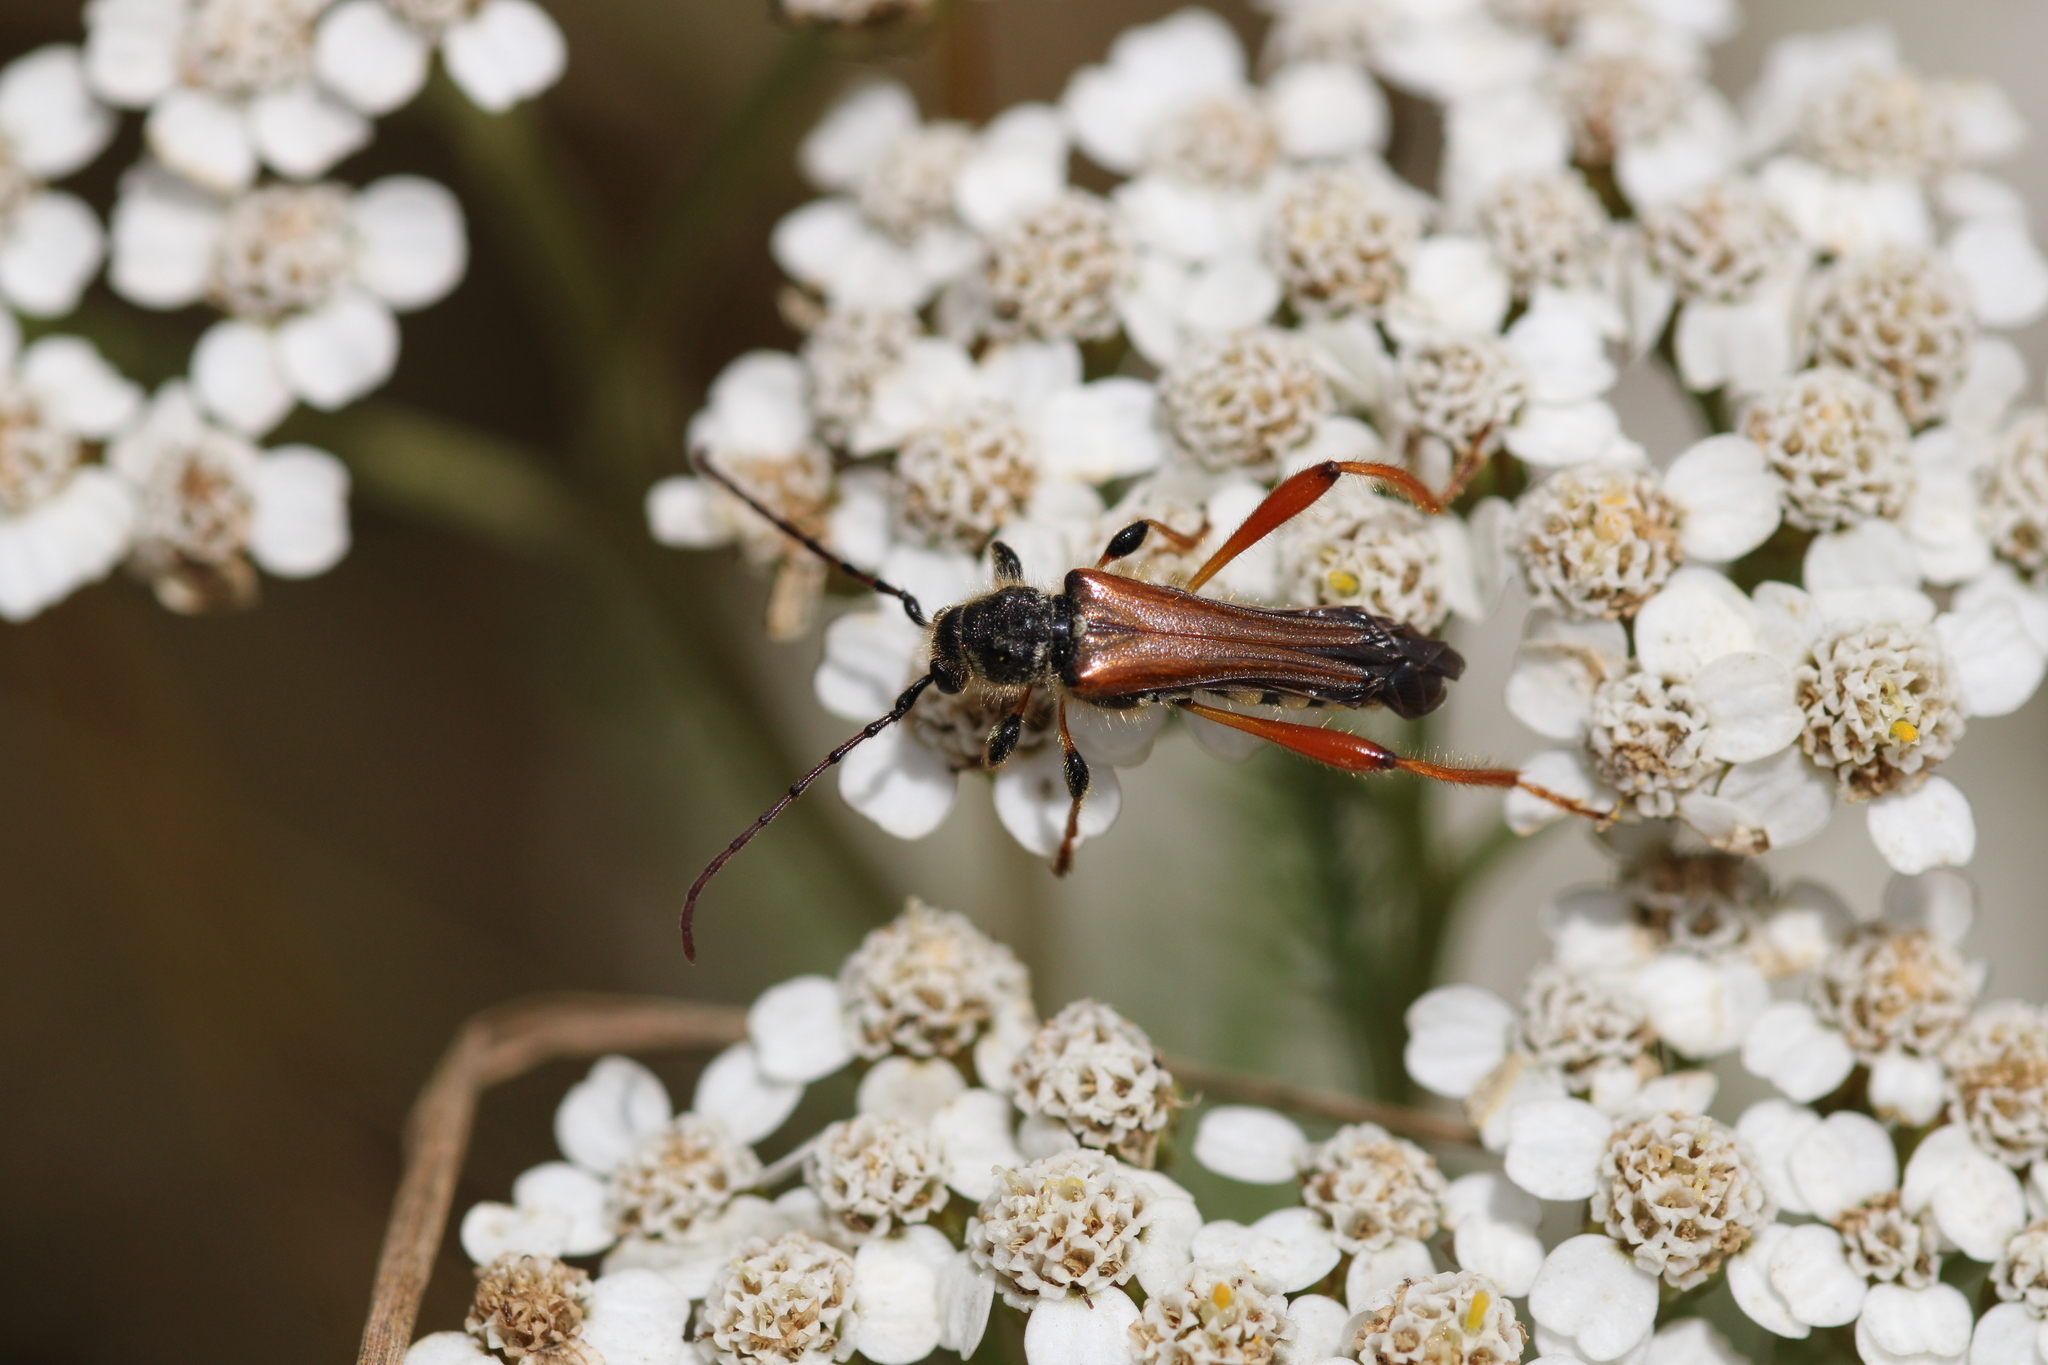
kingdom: Animalia
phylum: Arthropoda
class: Insecta
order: Coleoptera
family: Cerambycidae
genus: Stenopterus
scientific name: Stenopterus rufus
